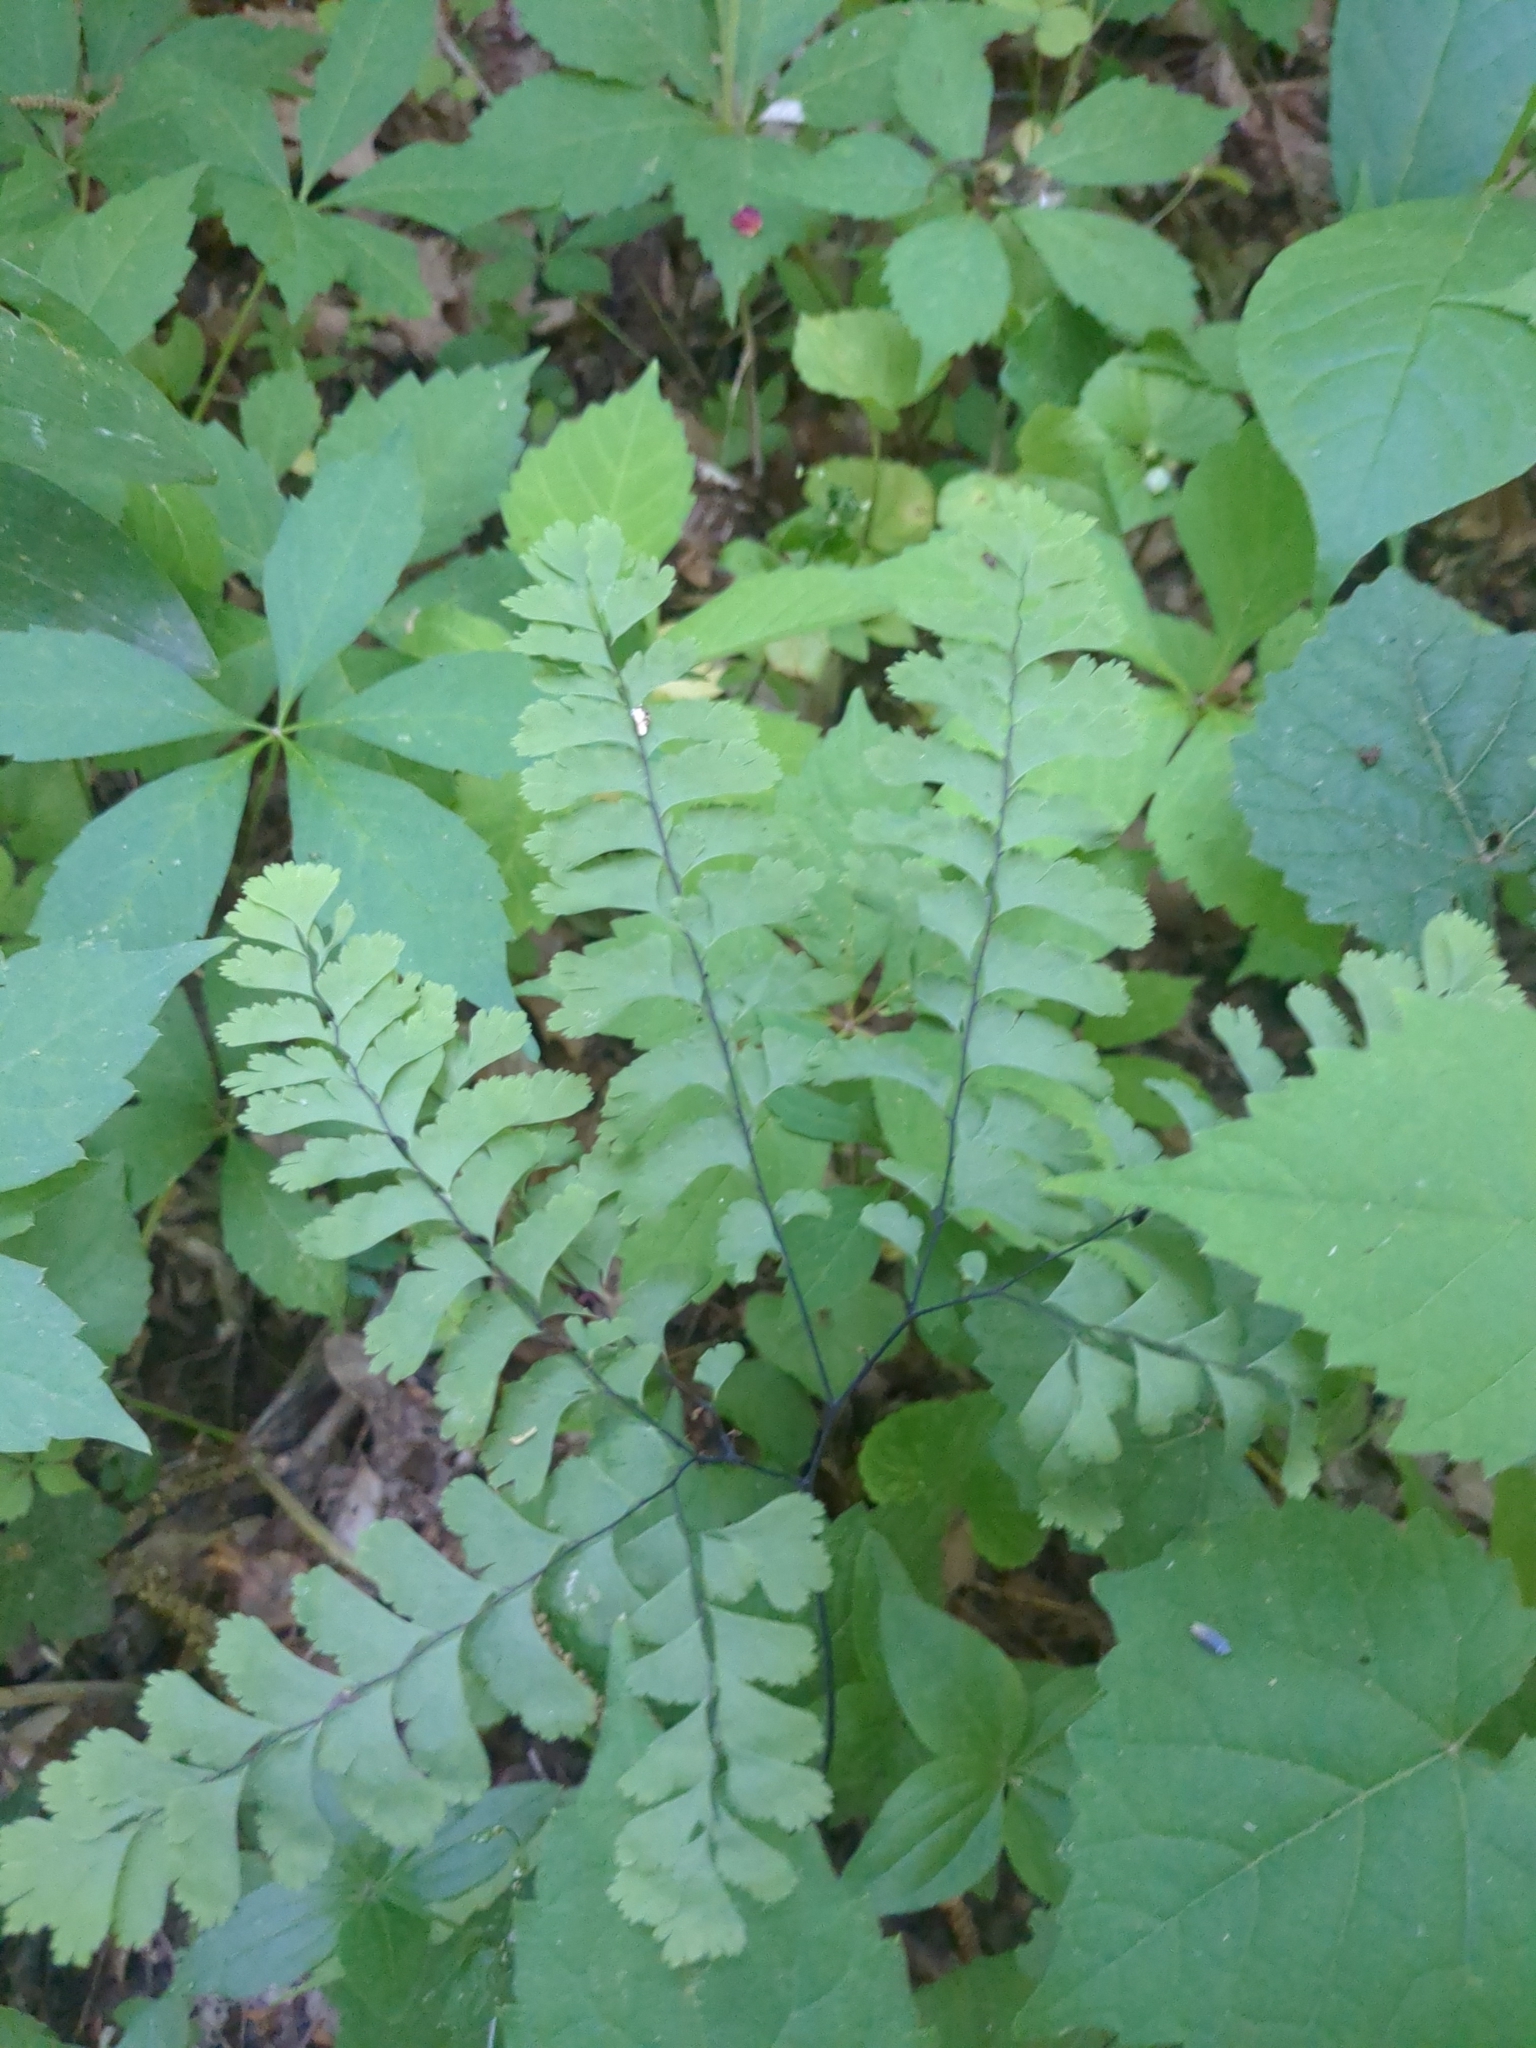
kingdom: Plantae
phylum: Tracheophyta
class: Polypodiopsida
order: Polypodiales
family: Pteridaceae
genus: Adiantum
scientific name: Adiantum pedatum
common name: Five-finger fern
